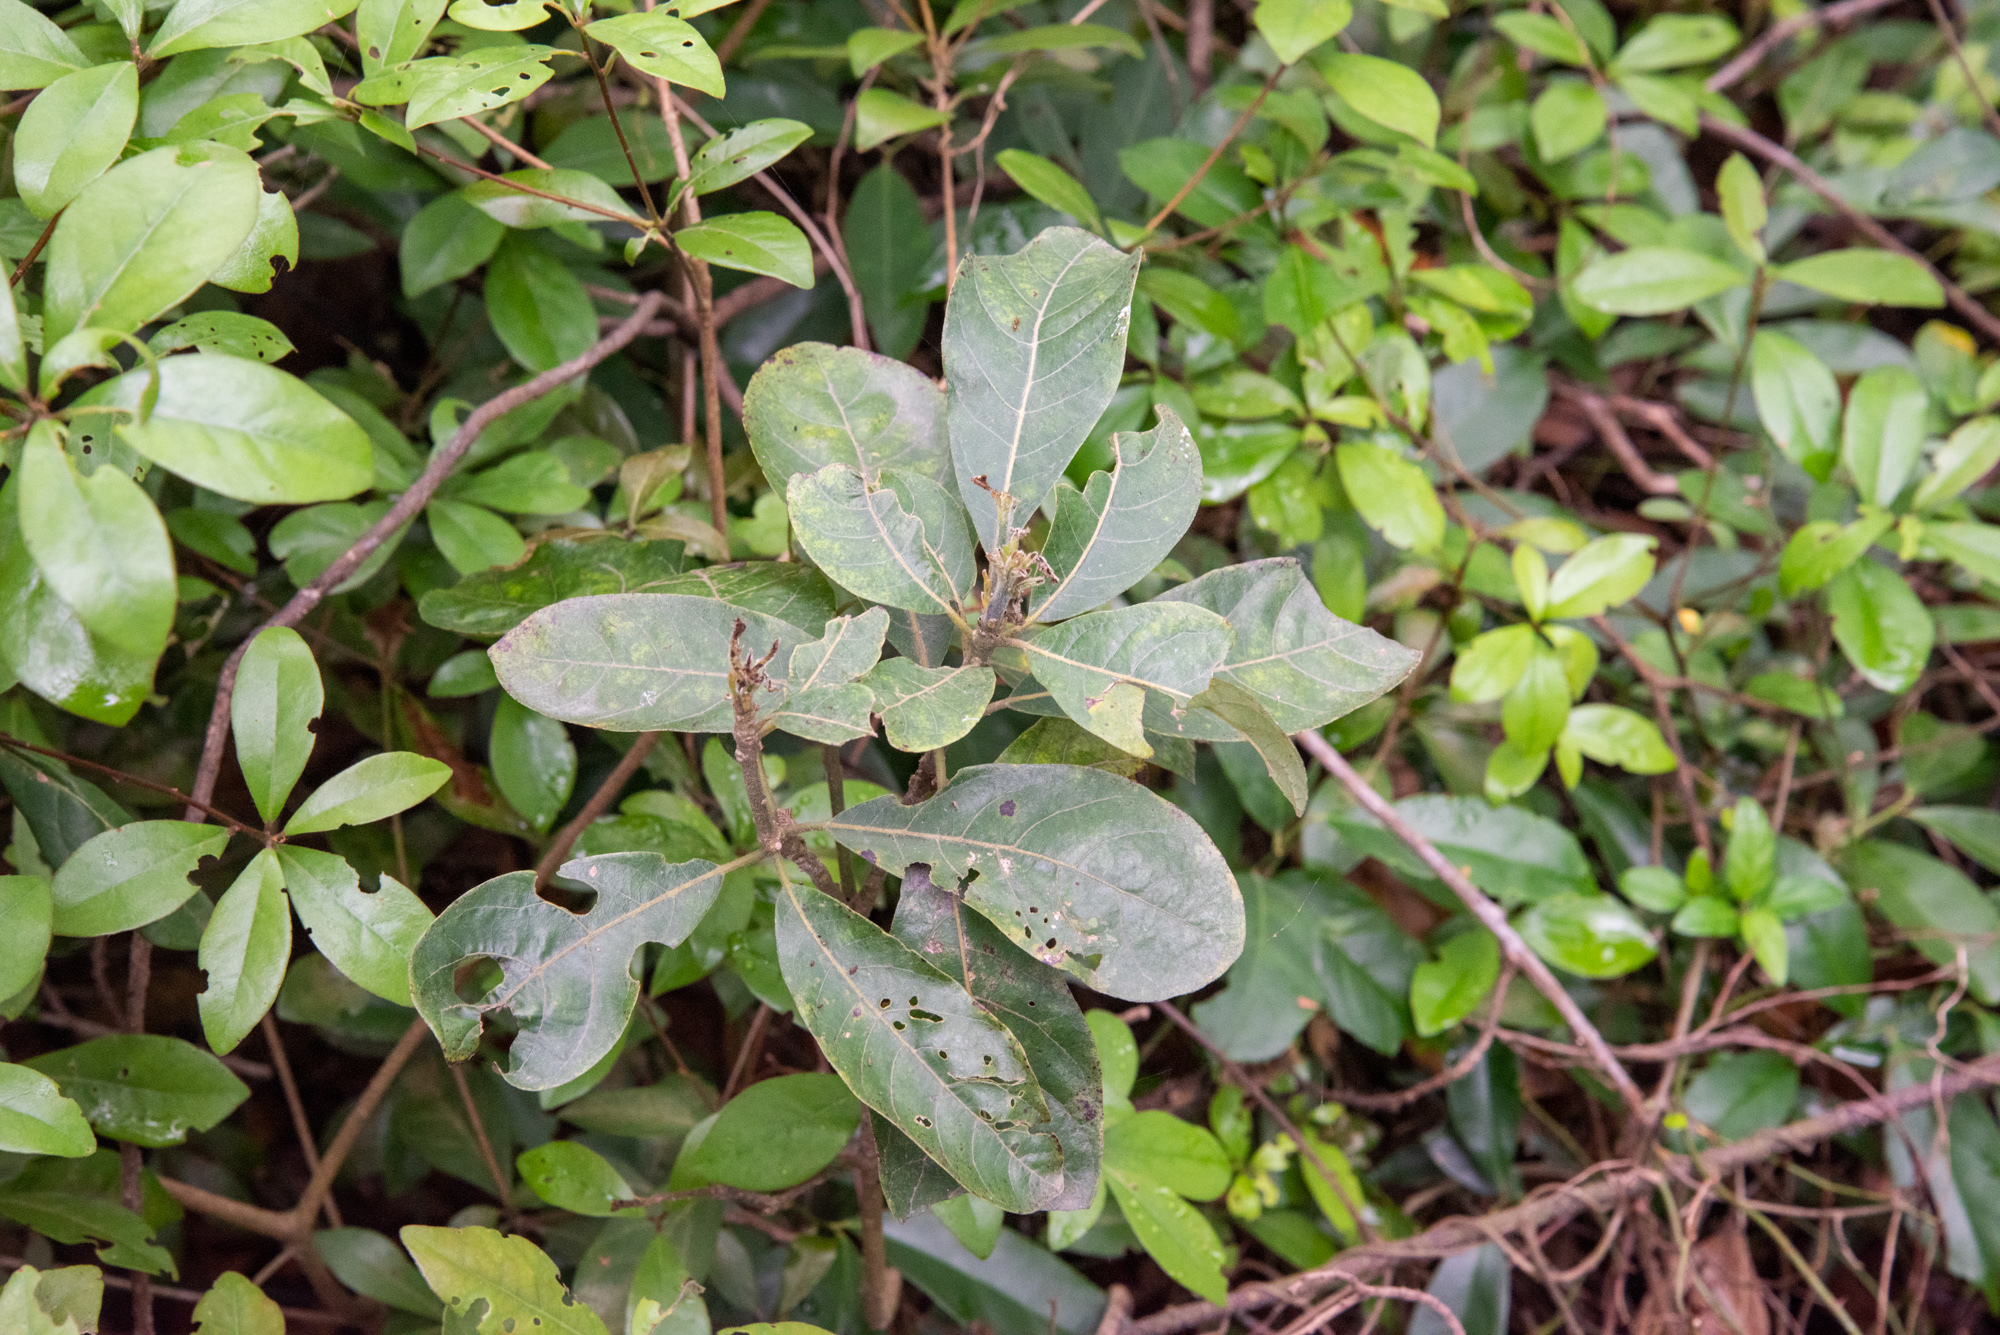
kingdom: Plantae
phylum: Tracheophyta
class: Magnoliopsida
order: Laurales
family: Lauraceae
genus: Litsea
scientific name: Litsea glutinosa
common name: Indian-laurel
